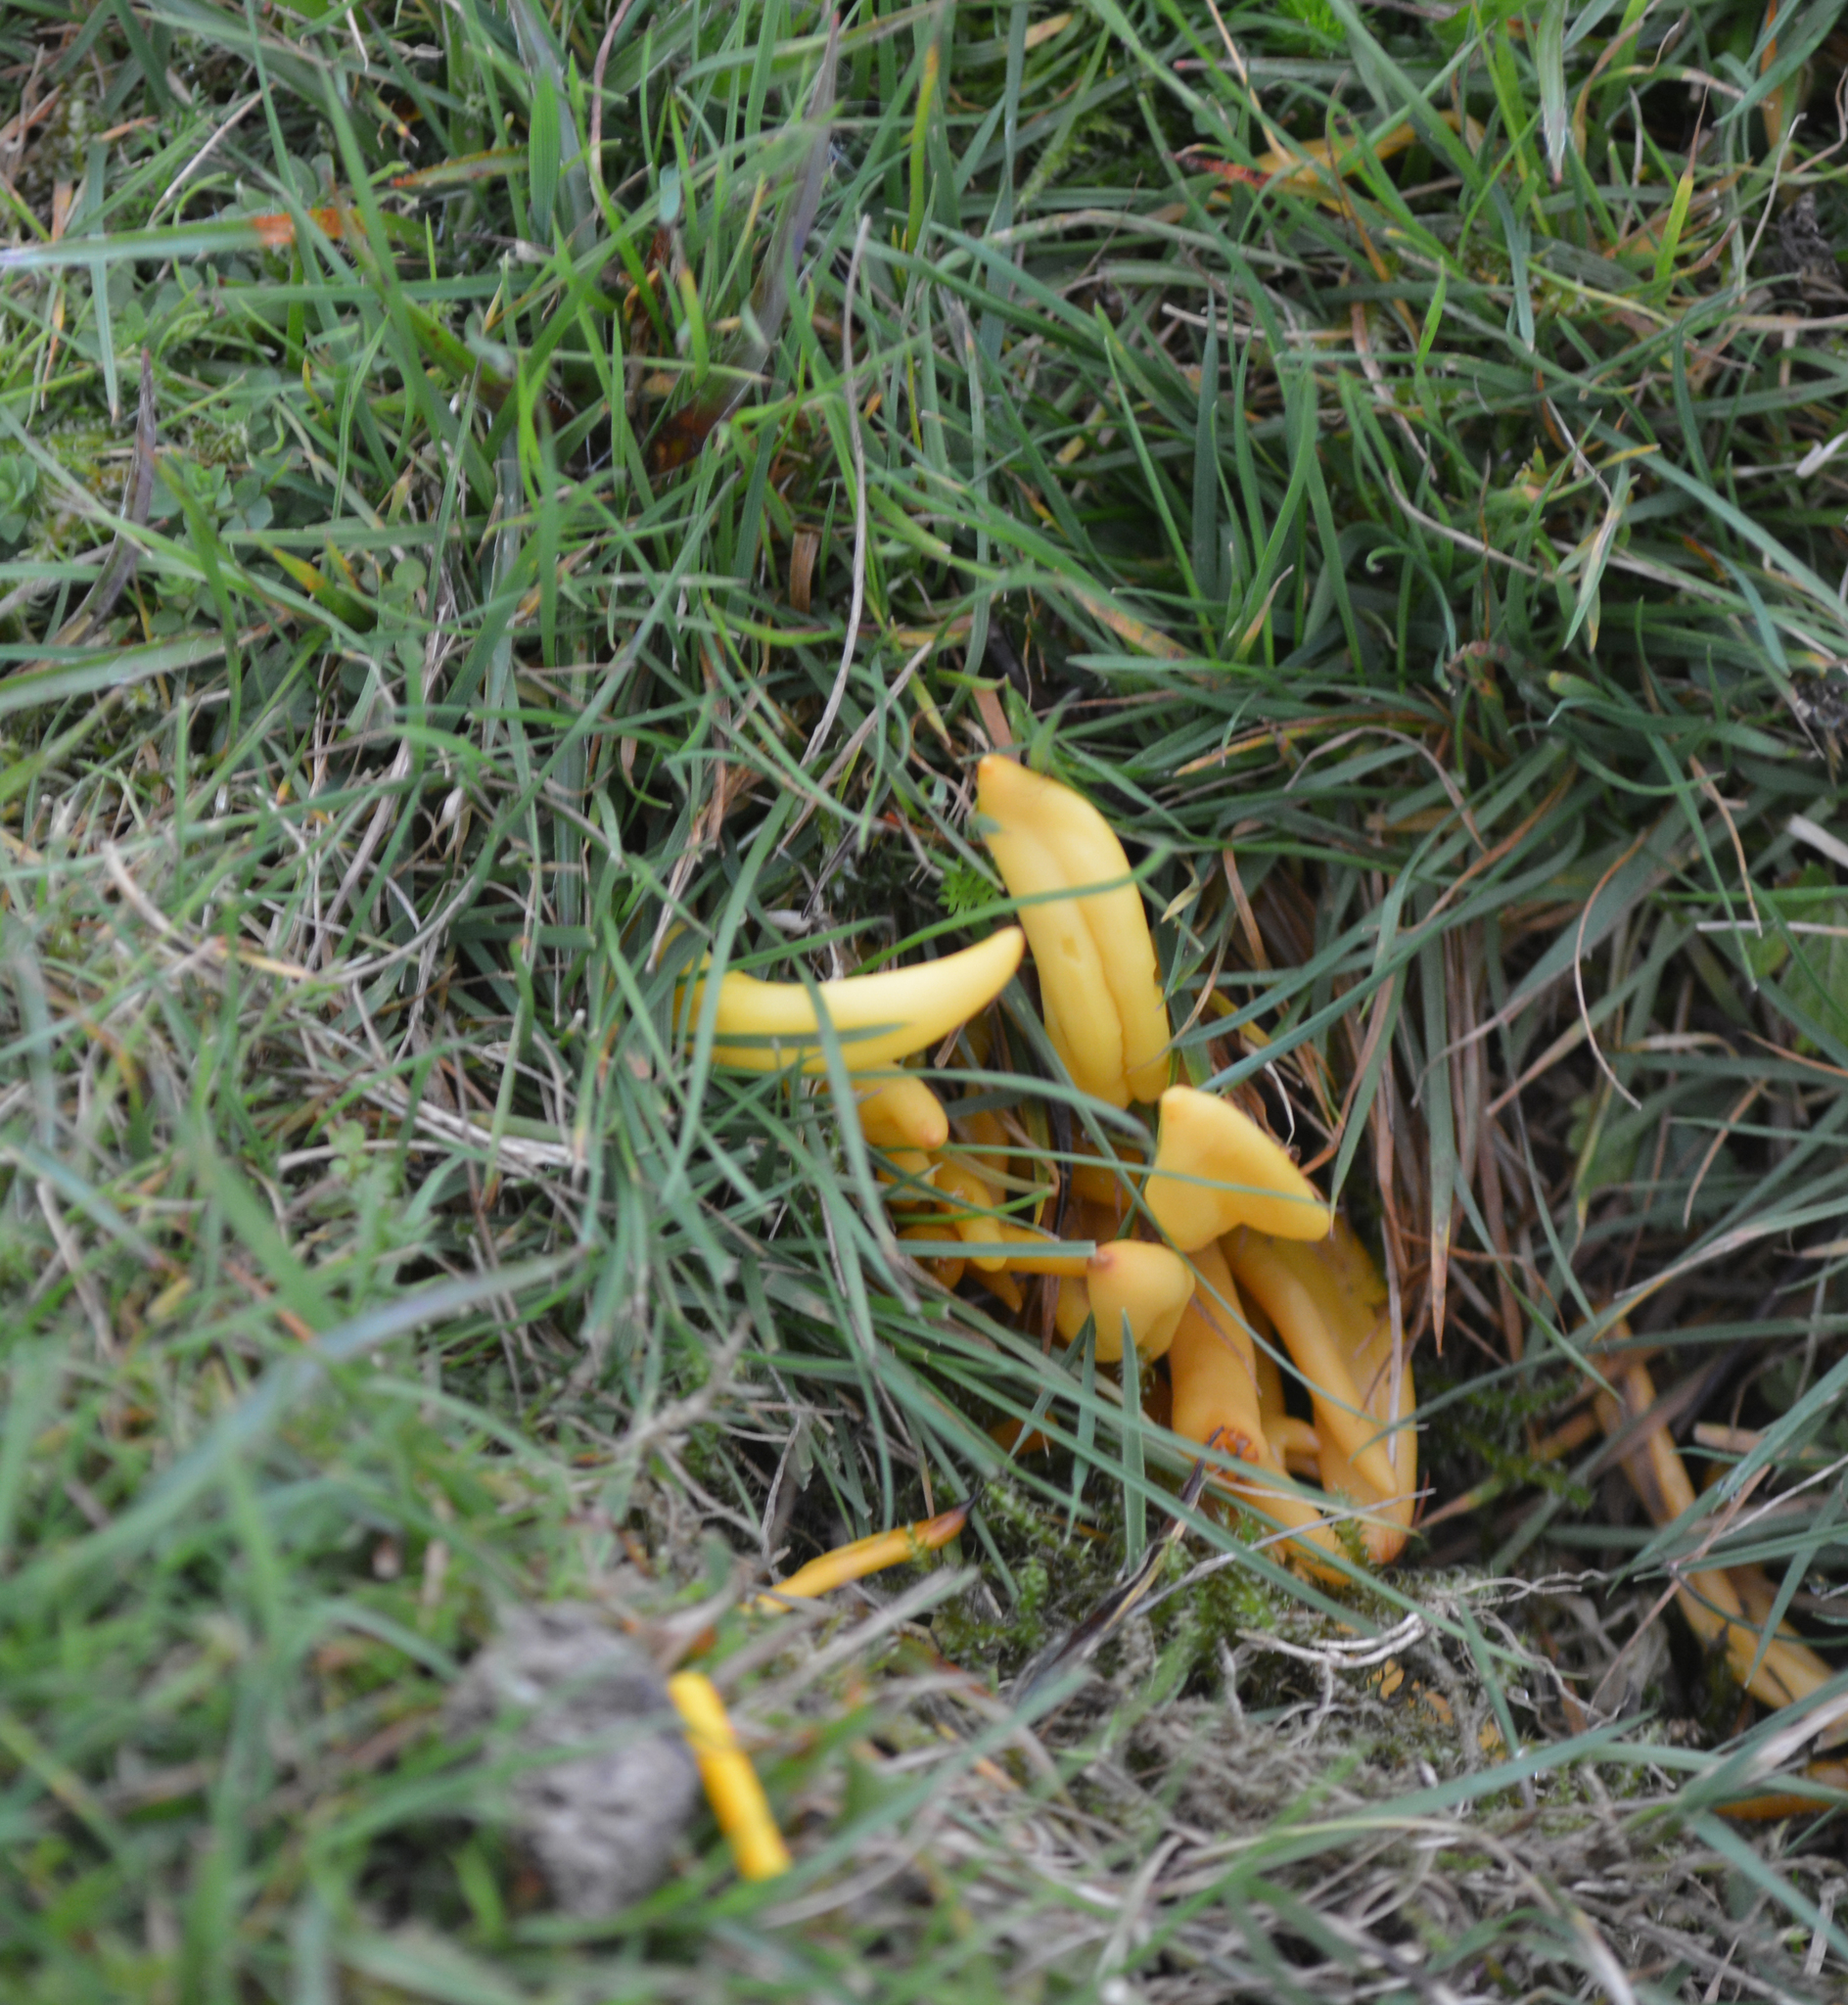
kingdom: Fungi
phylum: Basidiomycota
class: Agaricomycetes
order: Agaricales
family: Clavariaceae
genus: Clavulinopsis
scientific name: Clavulinopsis fusiformis
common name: Golden spindles
